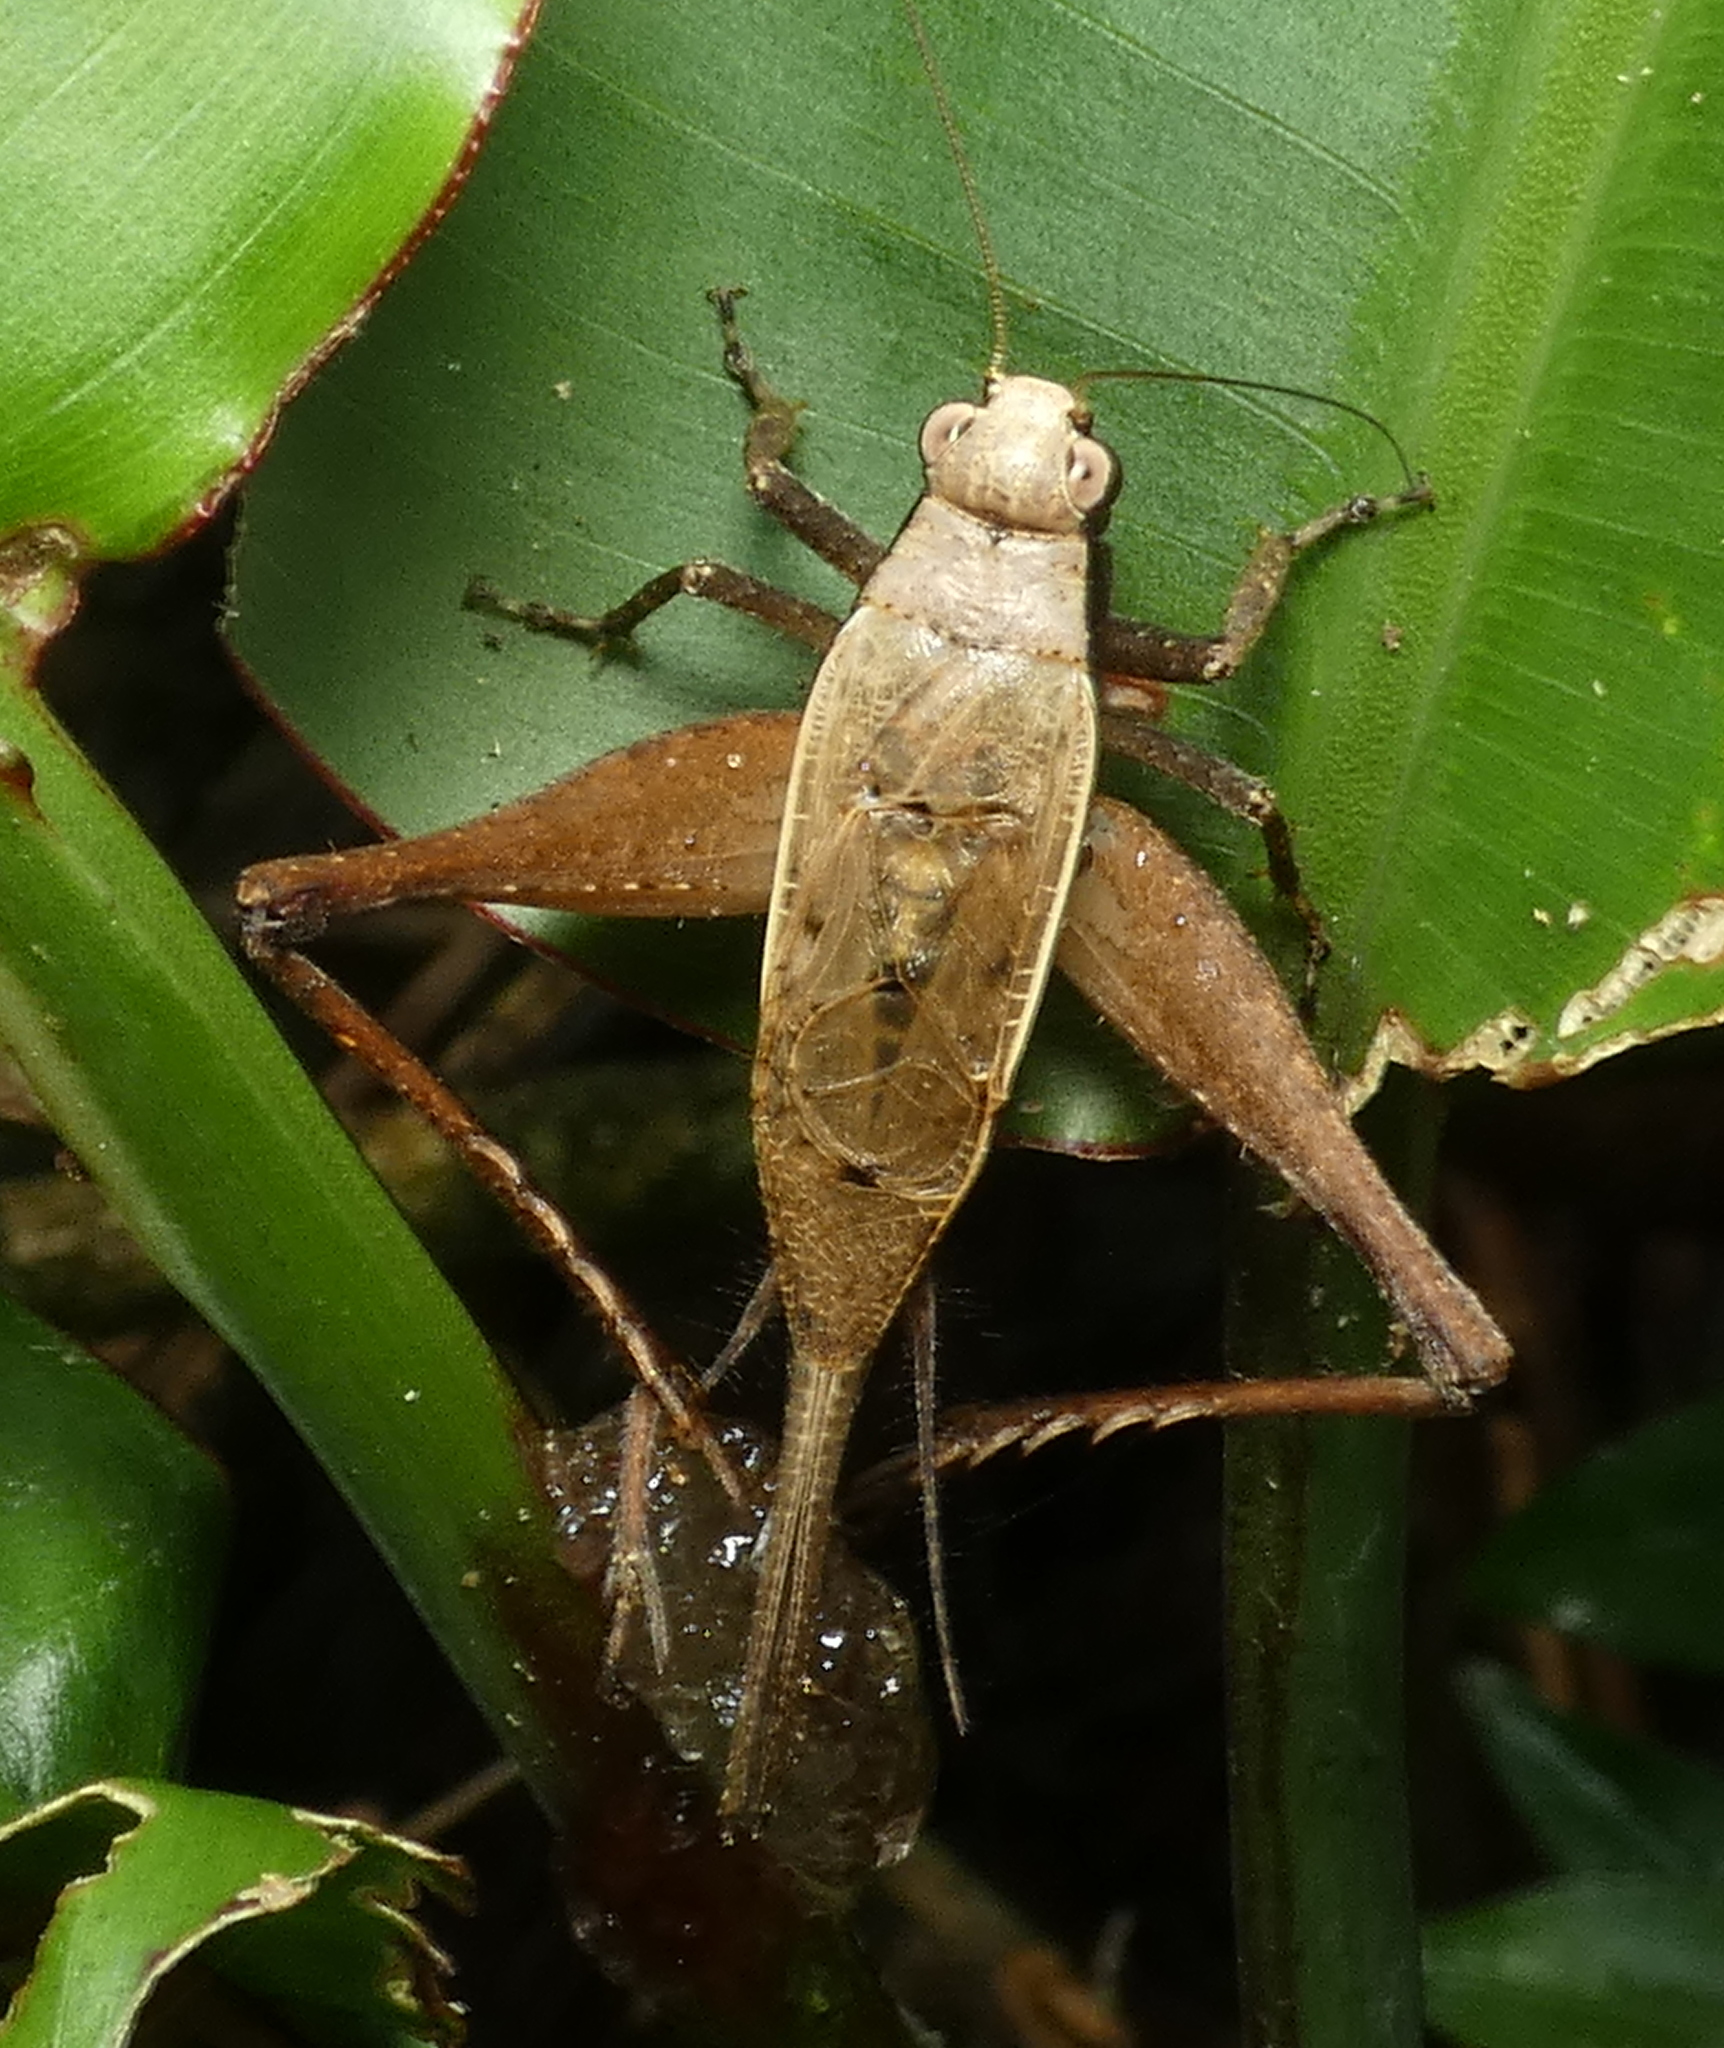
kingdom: Animalia
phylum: Arthropoda
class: Insecta
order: Orthoptera
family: Gryllidae
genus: Eneoptera
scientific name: Eneoptera surinamensis
